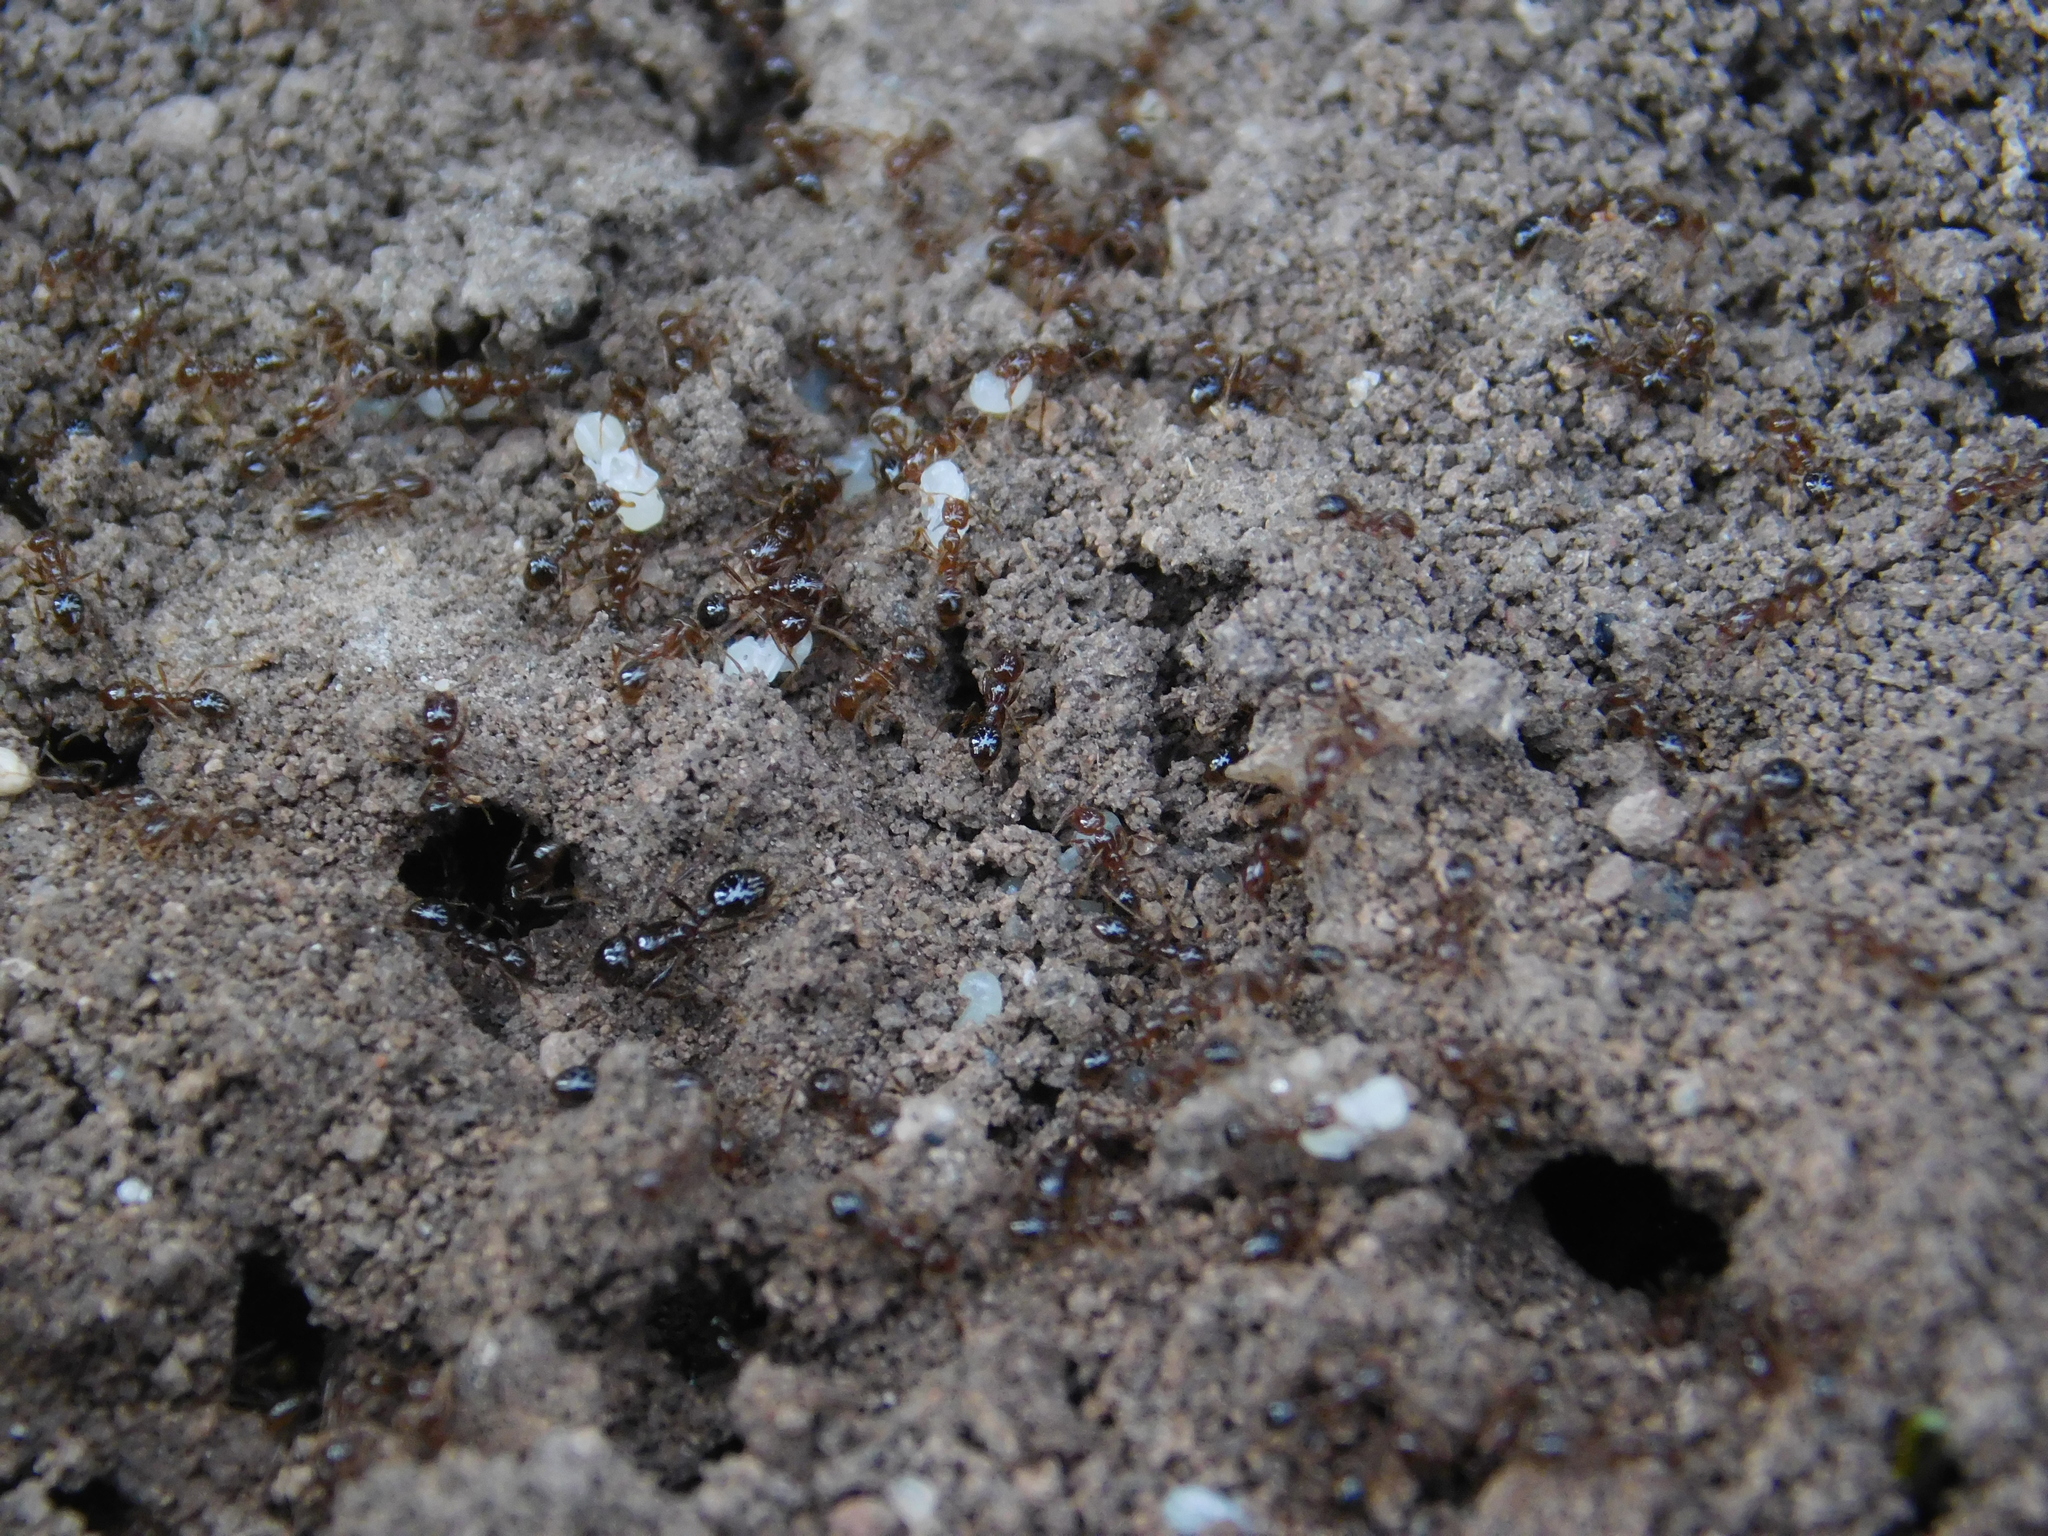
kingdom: Animalia
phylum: Arthropoda
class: Insecta
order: Hymenoptera
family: Formicidae
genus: Solenopsis
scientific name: Solenopsis invicta
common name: Red imported fire ant
